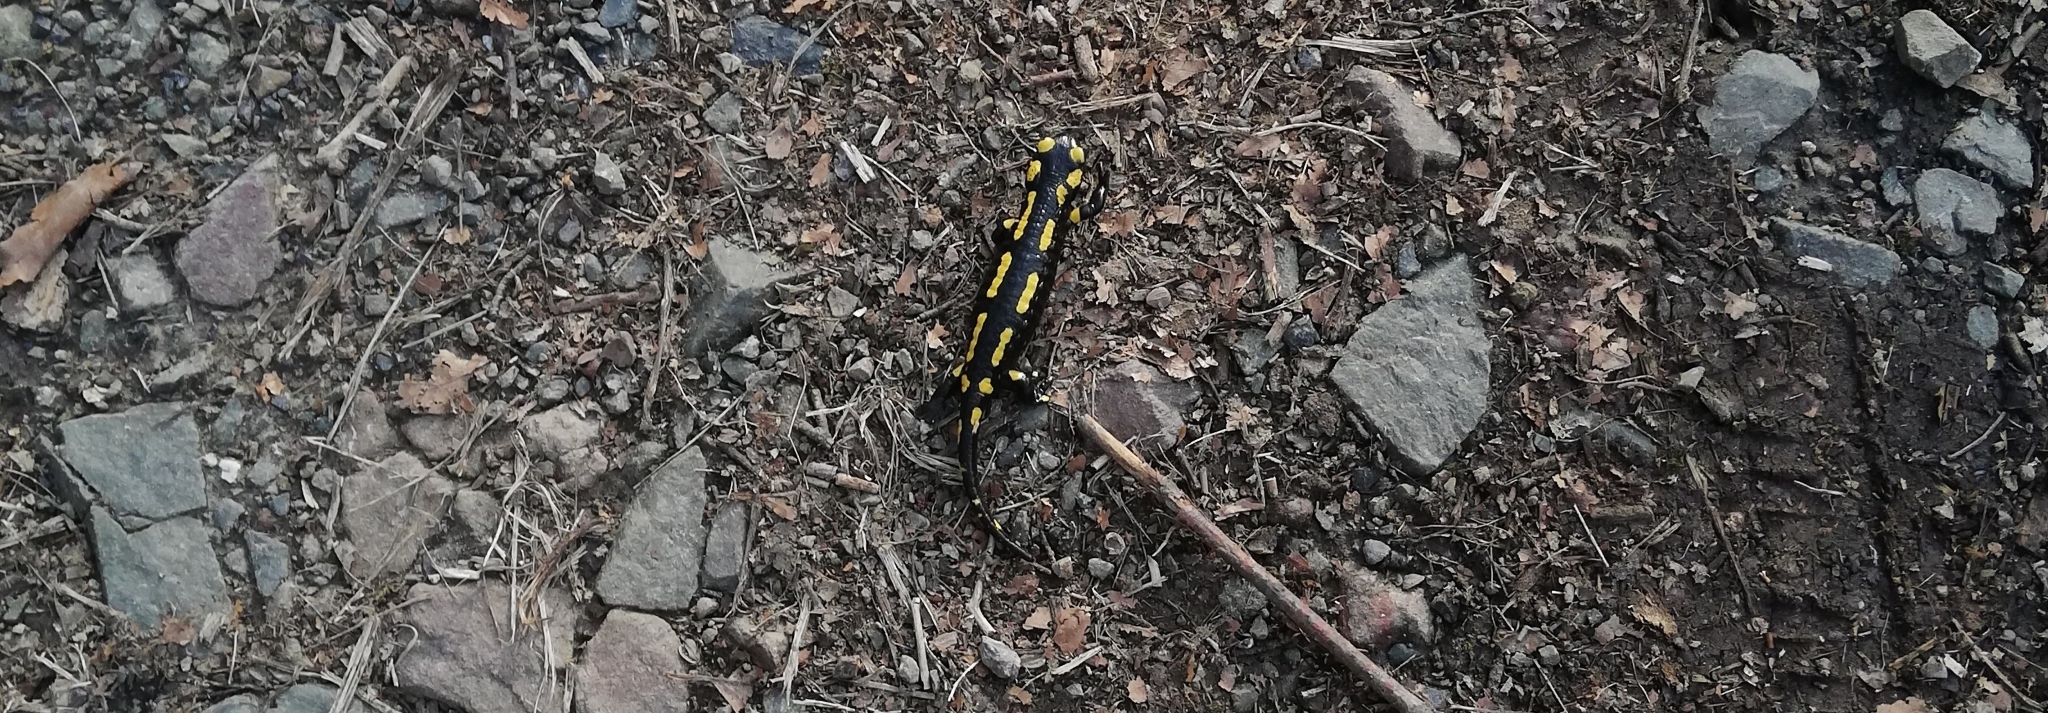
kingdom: Animalia
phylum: Chordata
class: Amphibia
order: Caudata
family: Salamandridae
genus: Salamandra
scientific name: Salamandra salamandra
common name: Fire salamander
